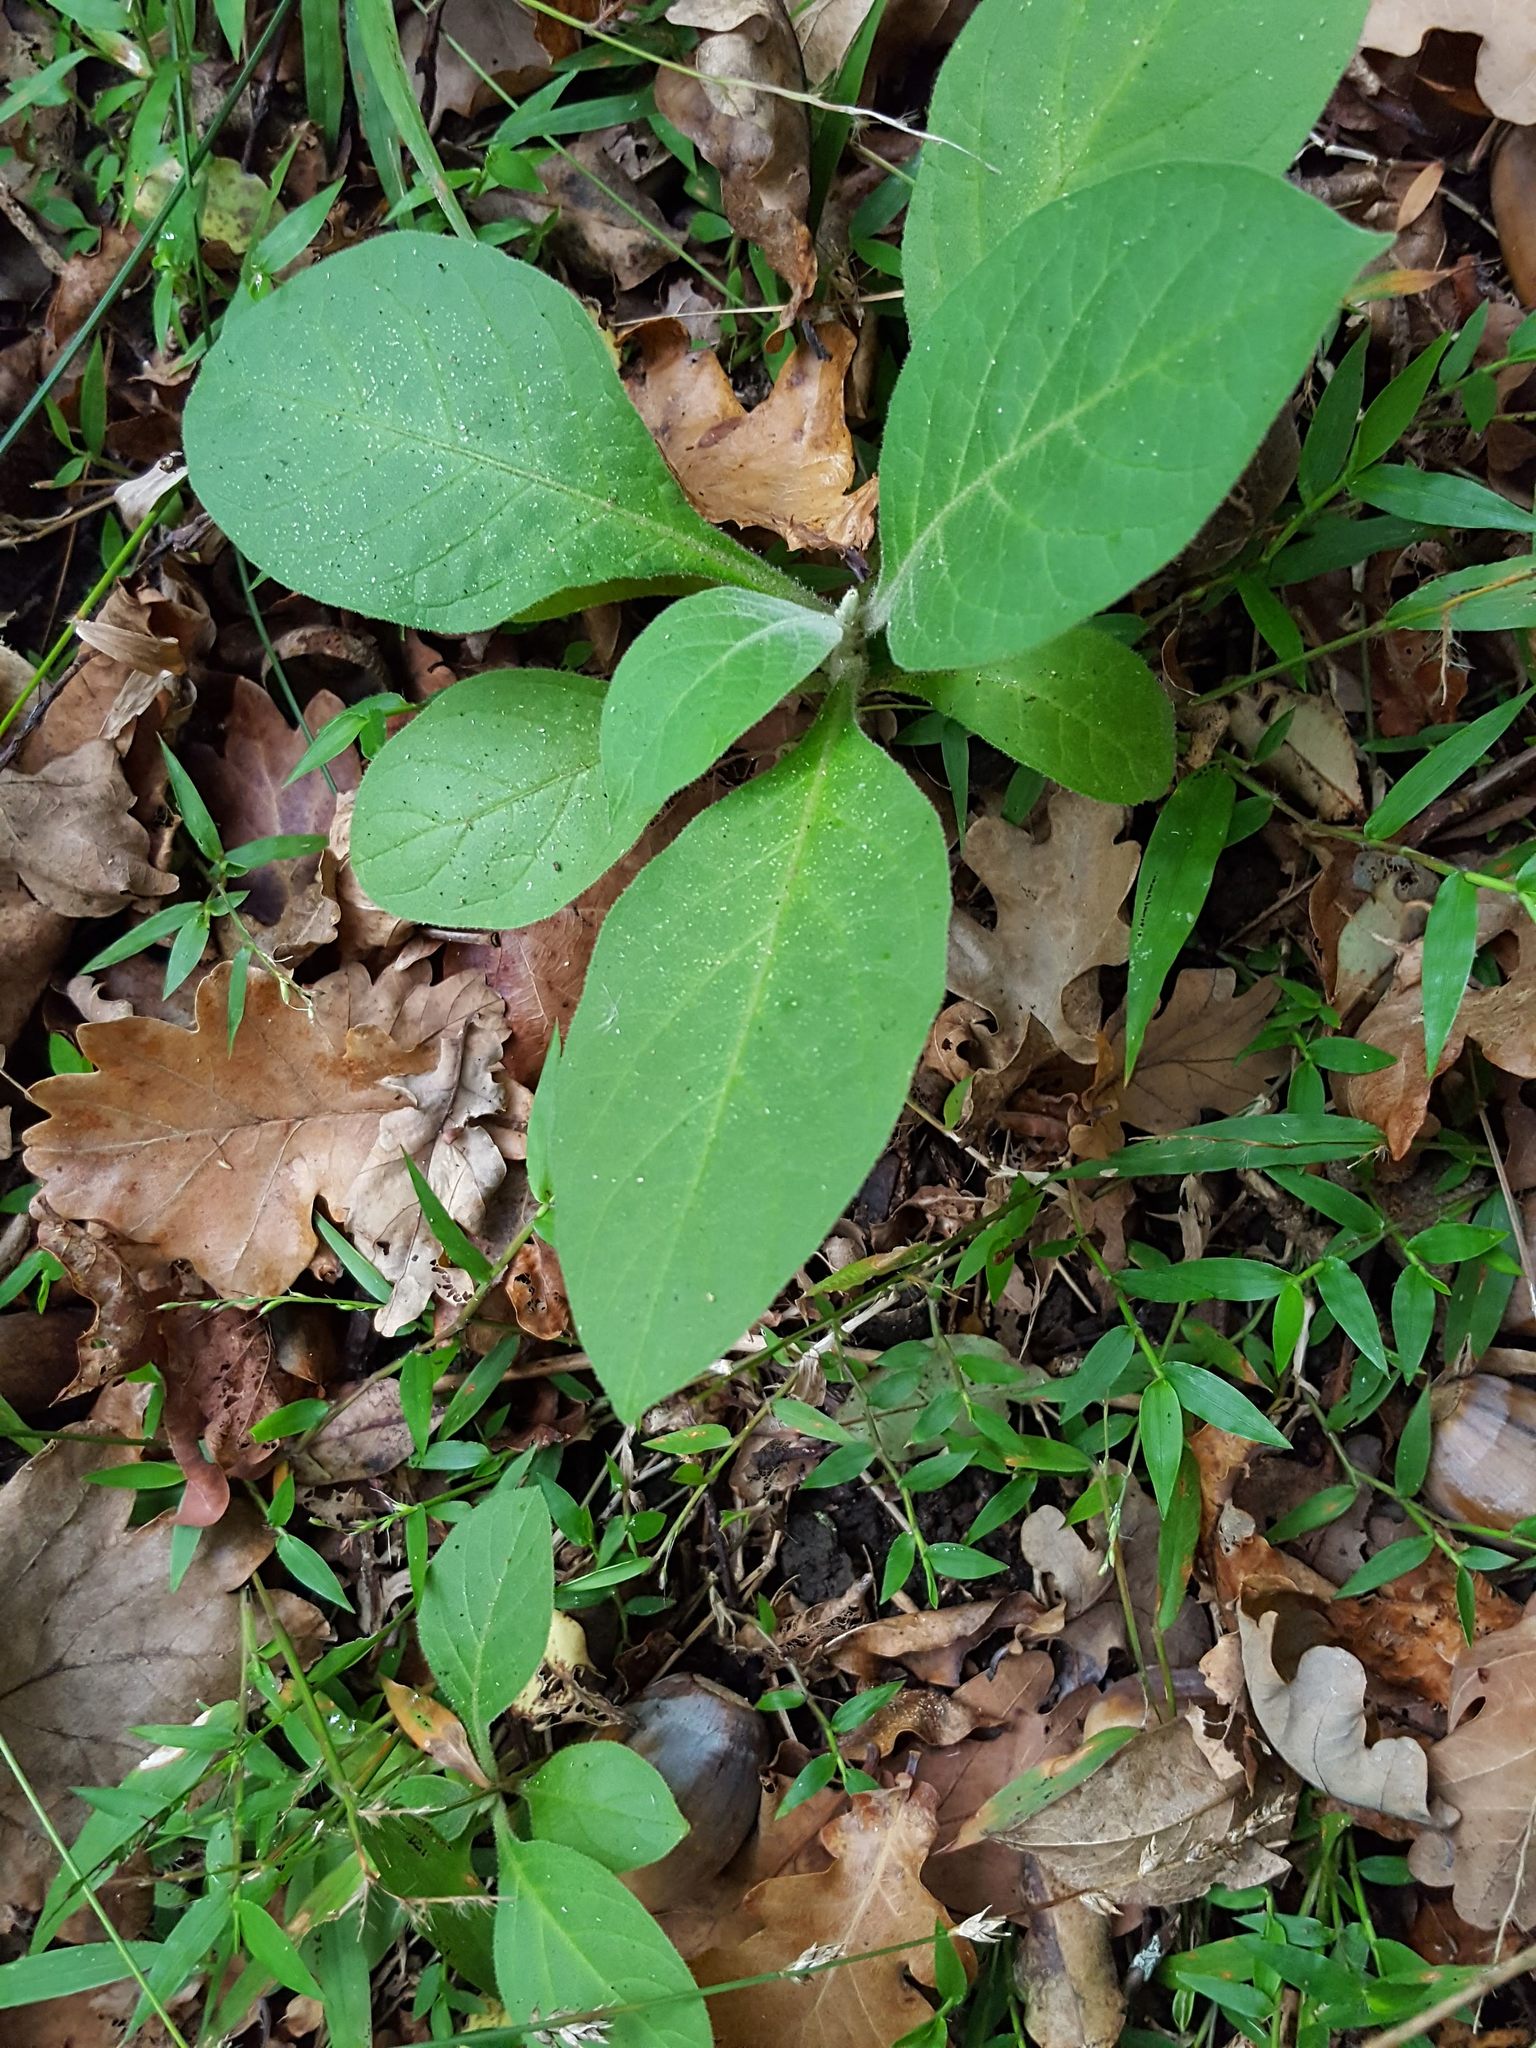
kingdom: Plantae
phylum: Tracheophyta
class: Magnoliopsida
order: Solanales
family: Solanaceae
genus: Solanum
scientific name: Solanum mauritianum
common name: Earleaf nightshade
